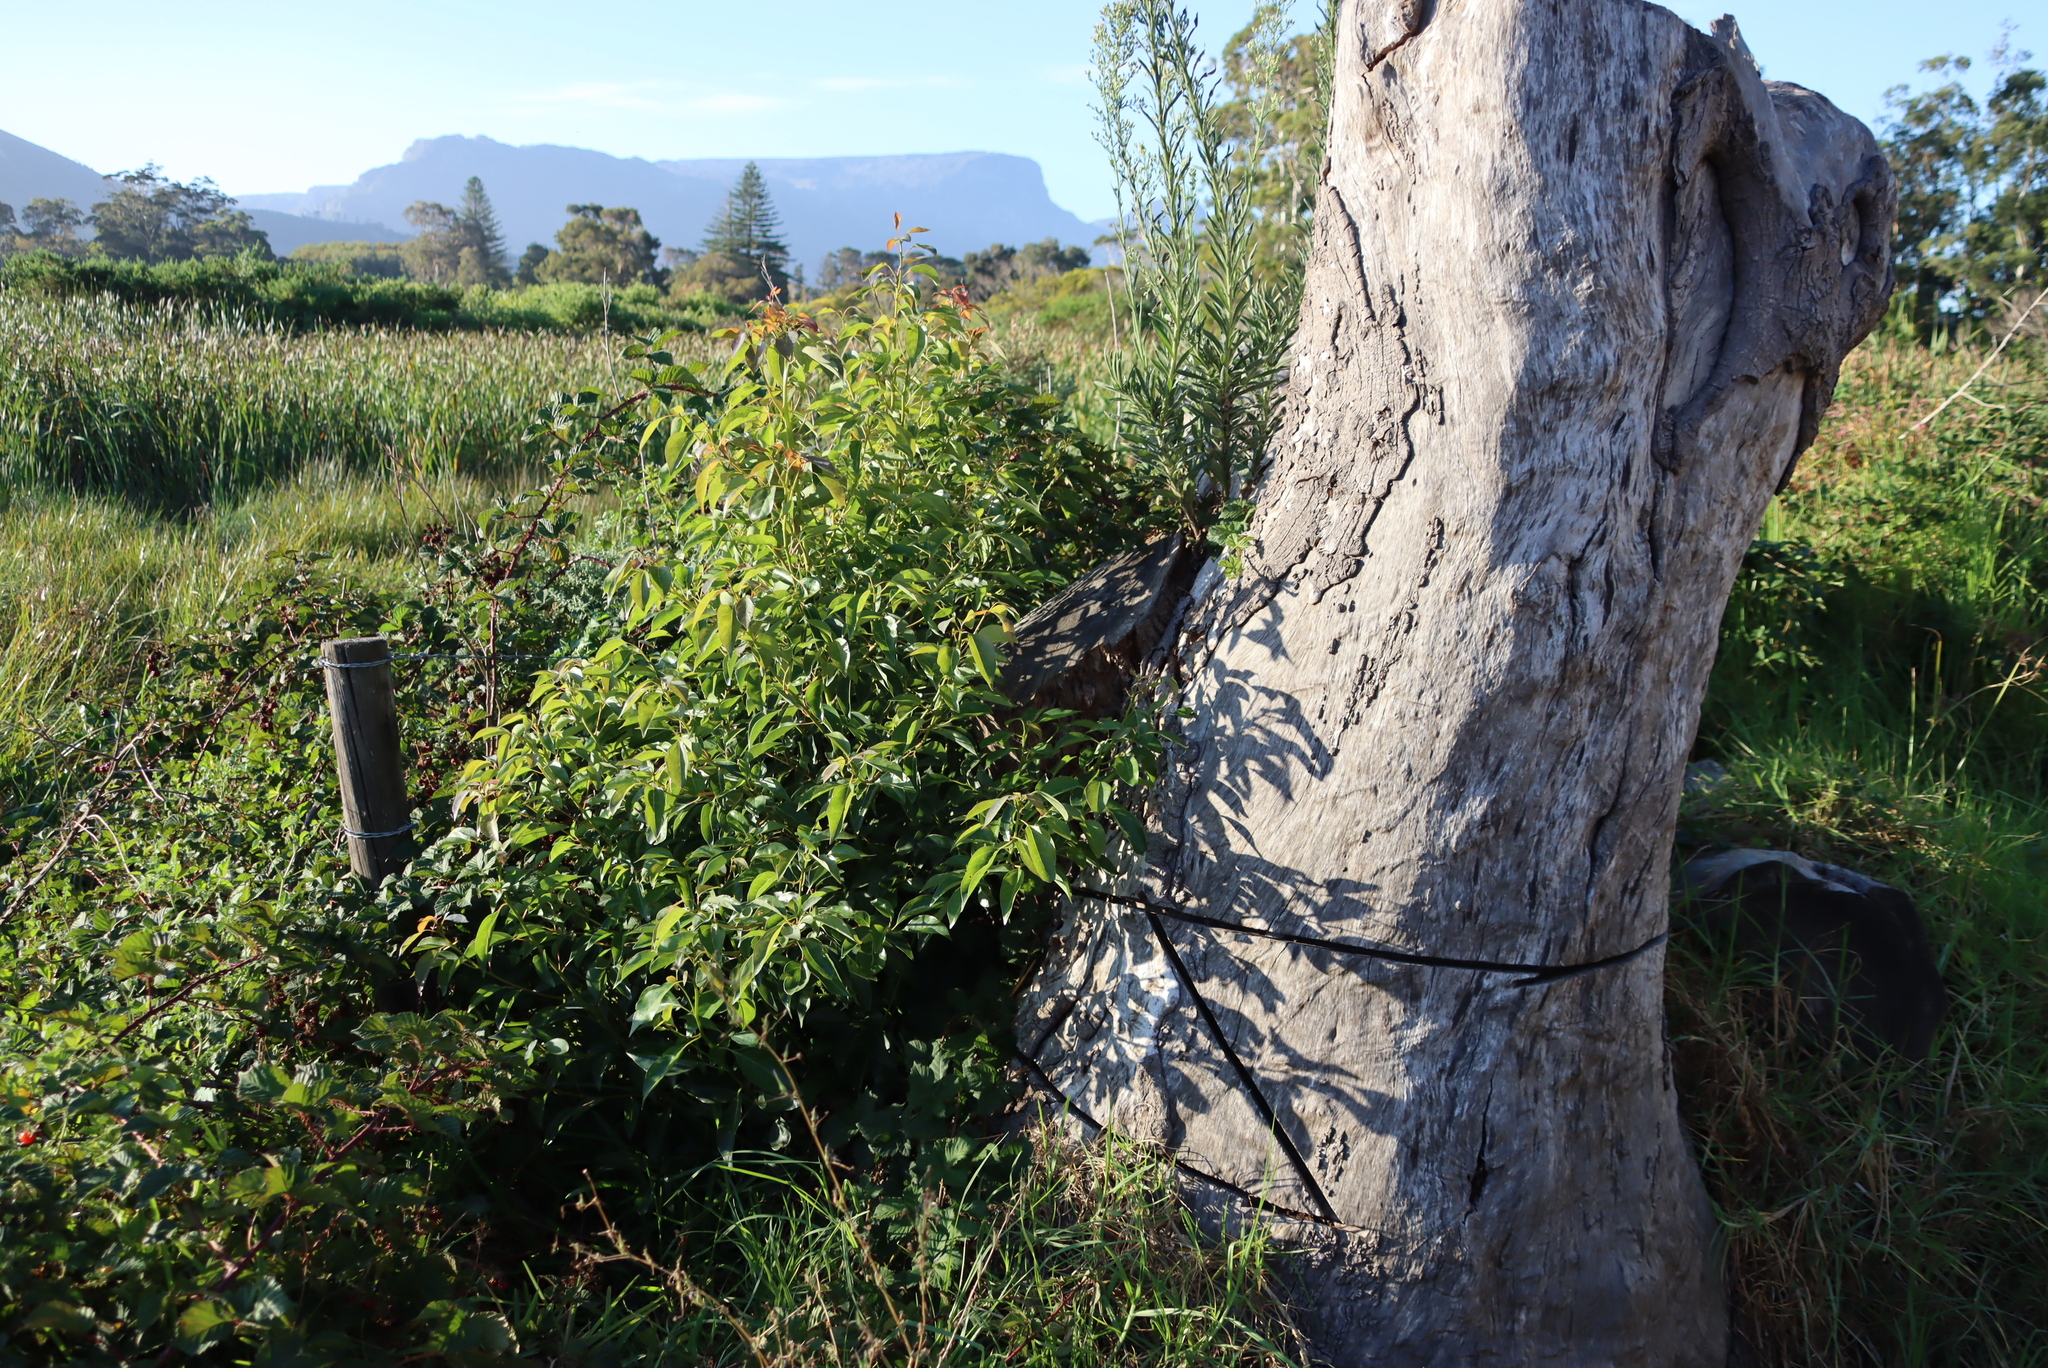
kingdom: Plantae
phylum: Tracheophyta
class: Magnoliopsida
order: Asterales
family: Asteraceae
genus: Tarchonanthus
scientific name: Tarchonanthus camphoratus
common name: Camphorwood
